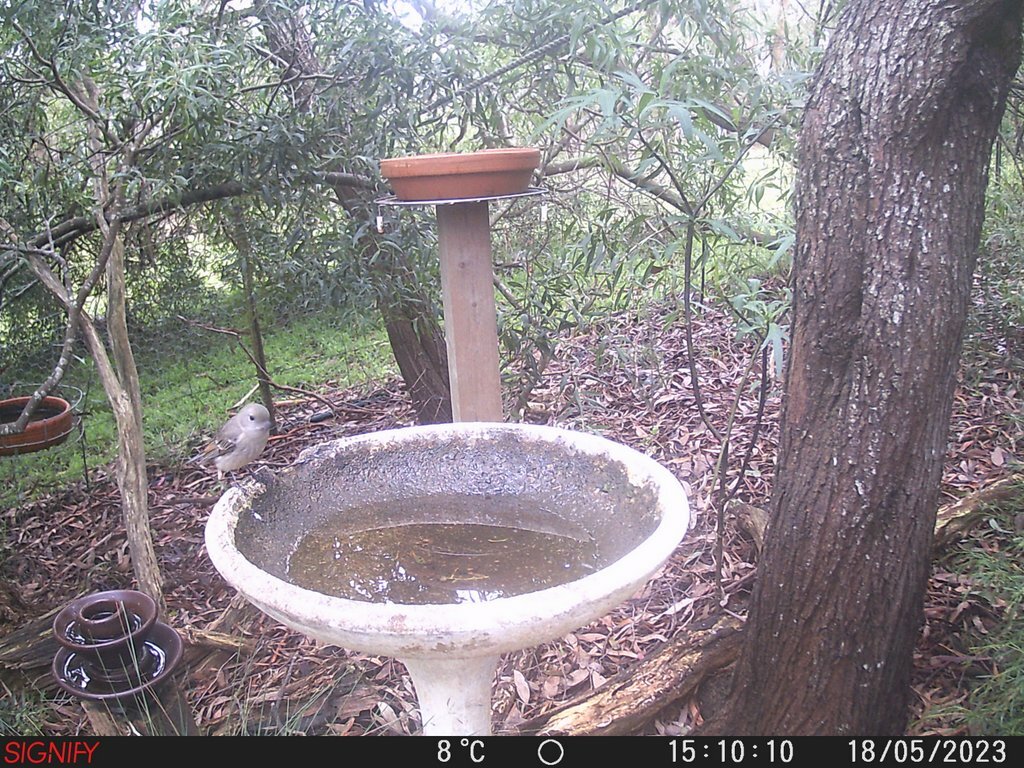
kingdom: Animalia
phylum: Chordata
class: Aves
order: Passeriformes
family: Pachycephalidae
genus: Pachycephala
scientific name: Pachycephala pectoralis
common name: Australian golden whistler
